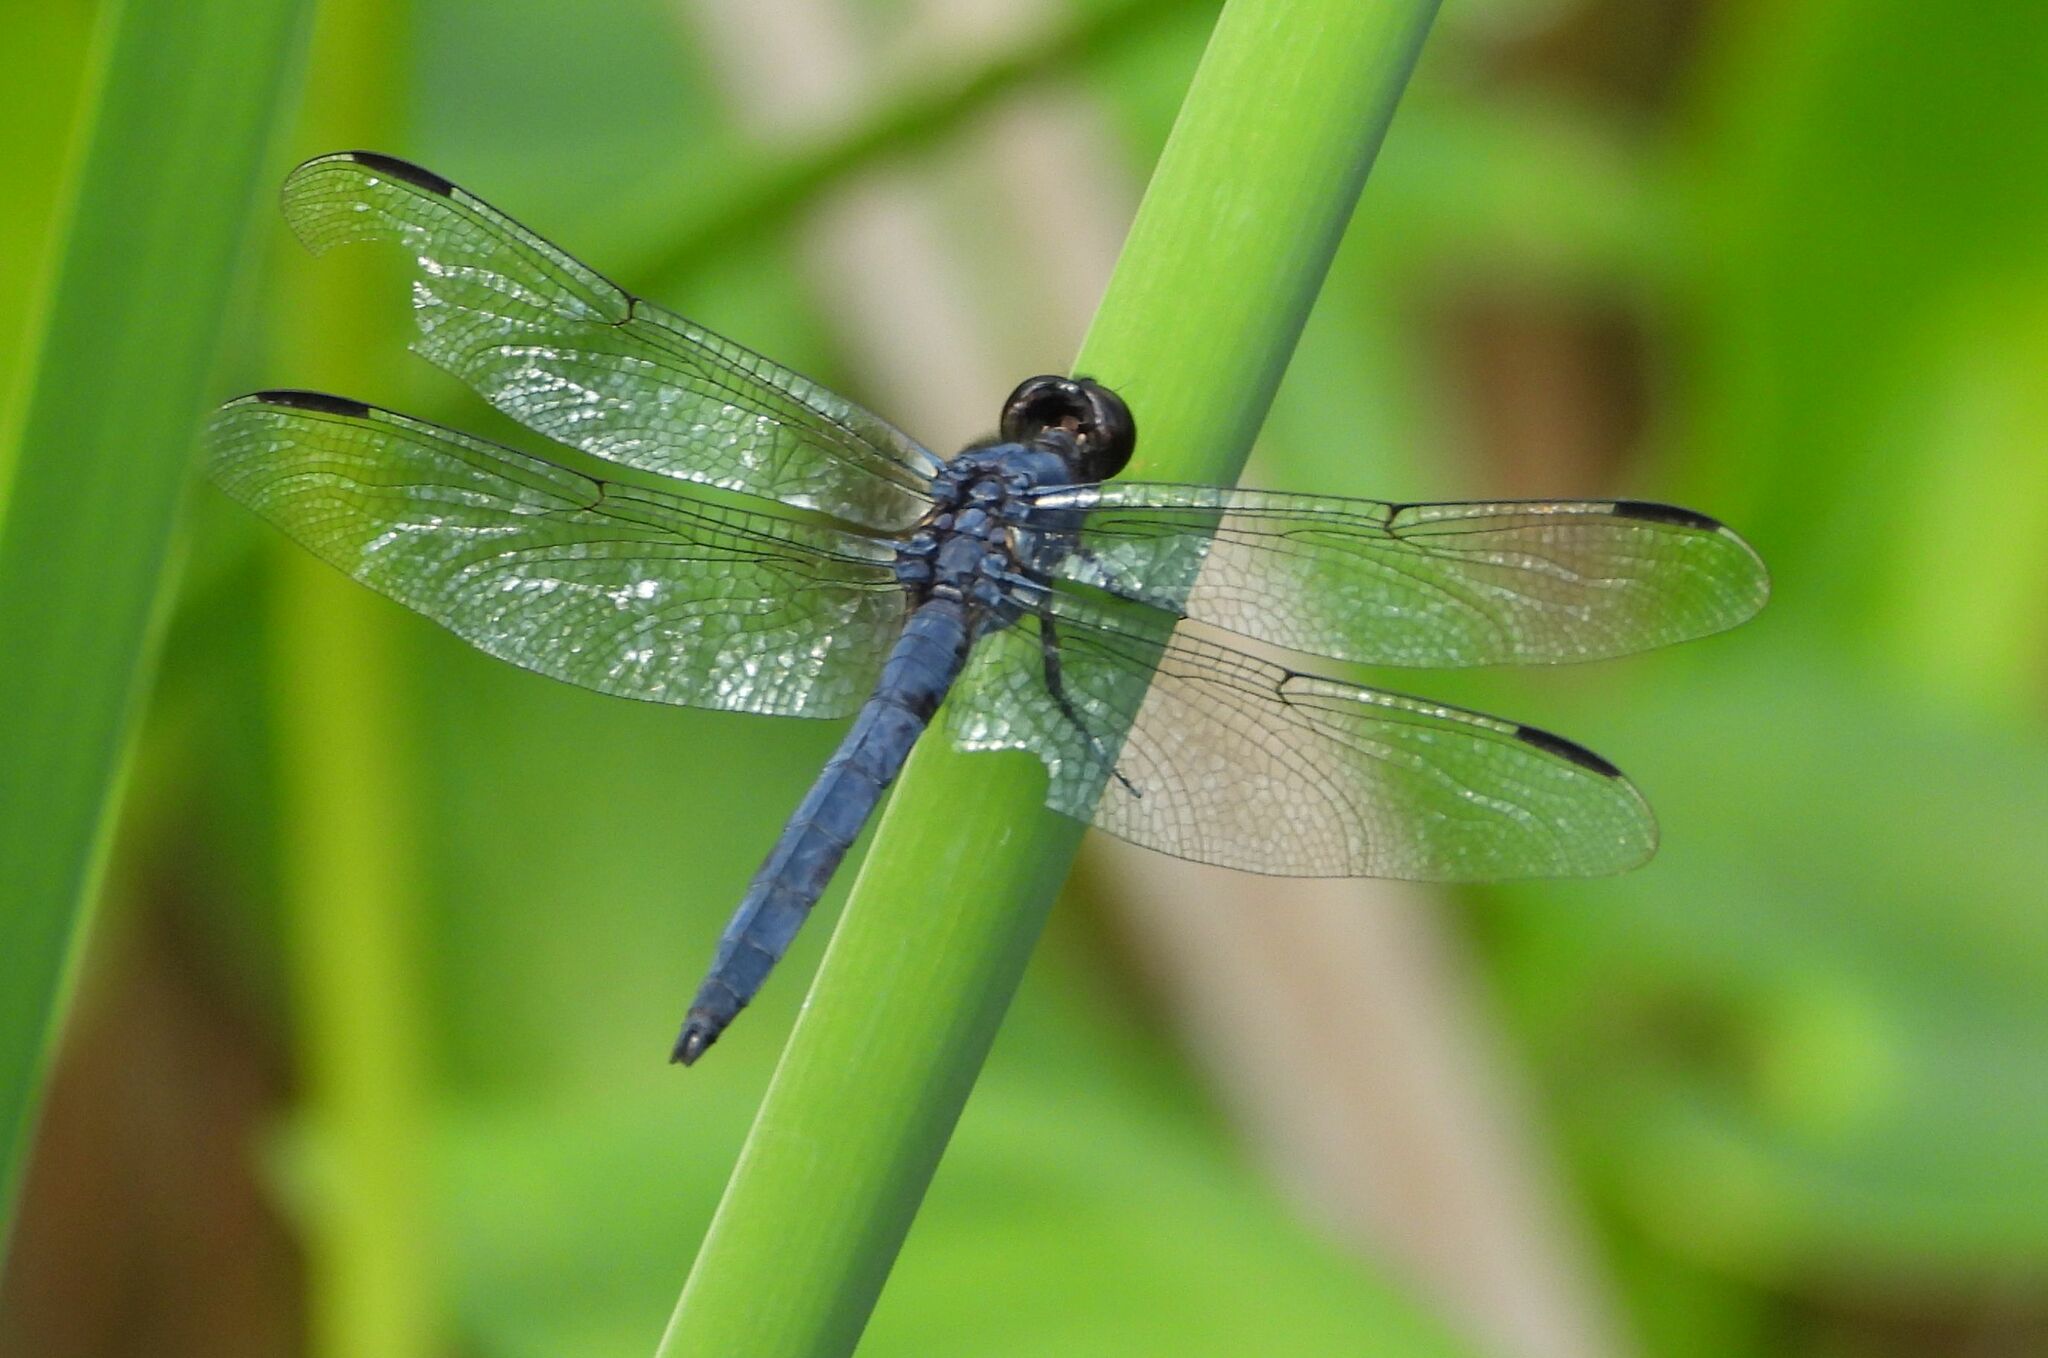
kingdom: Animalia
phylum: Arthropoda
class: Insecta
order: Odonata
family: Libellulidae
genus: Libellula
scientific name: Libellula incesta
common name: Slaty skimmer
